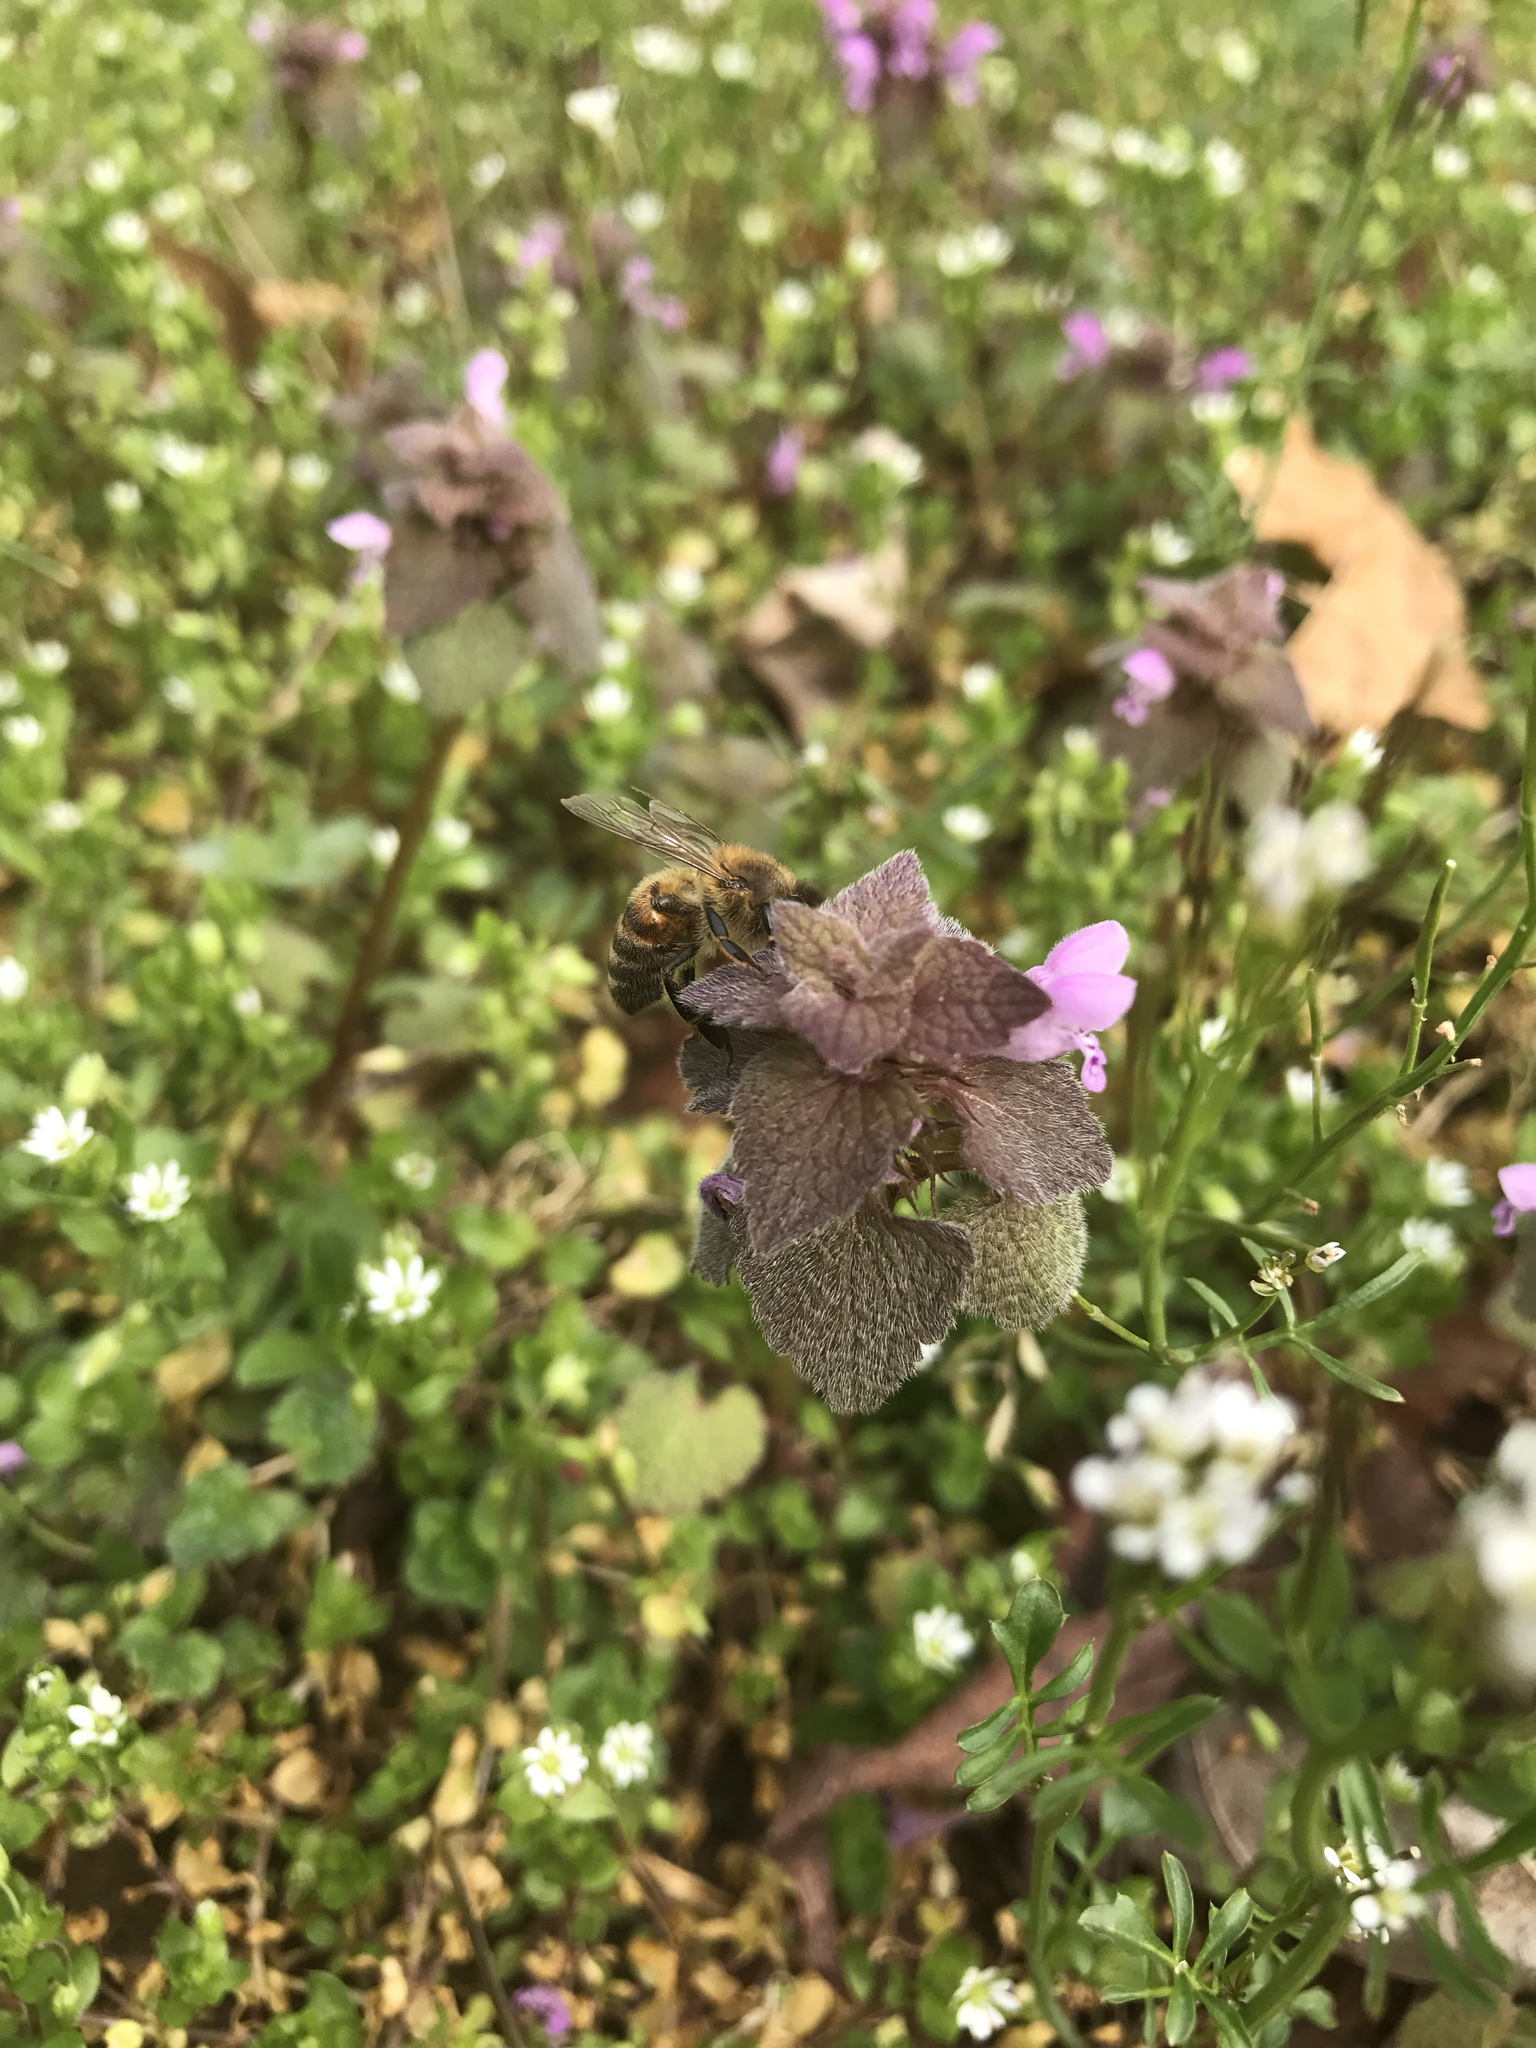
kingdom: Animalia
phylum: Arthropoda
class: Insecta
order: Hymenoptera
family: Apidae
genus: Apis
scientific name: Apis mellifera
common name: Honey bee
